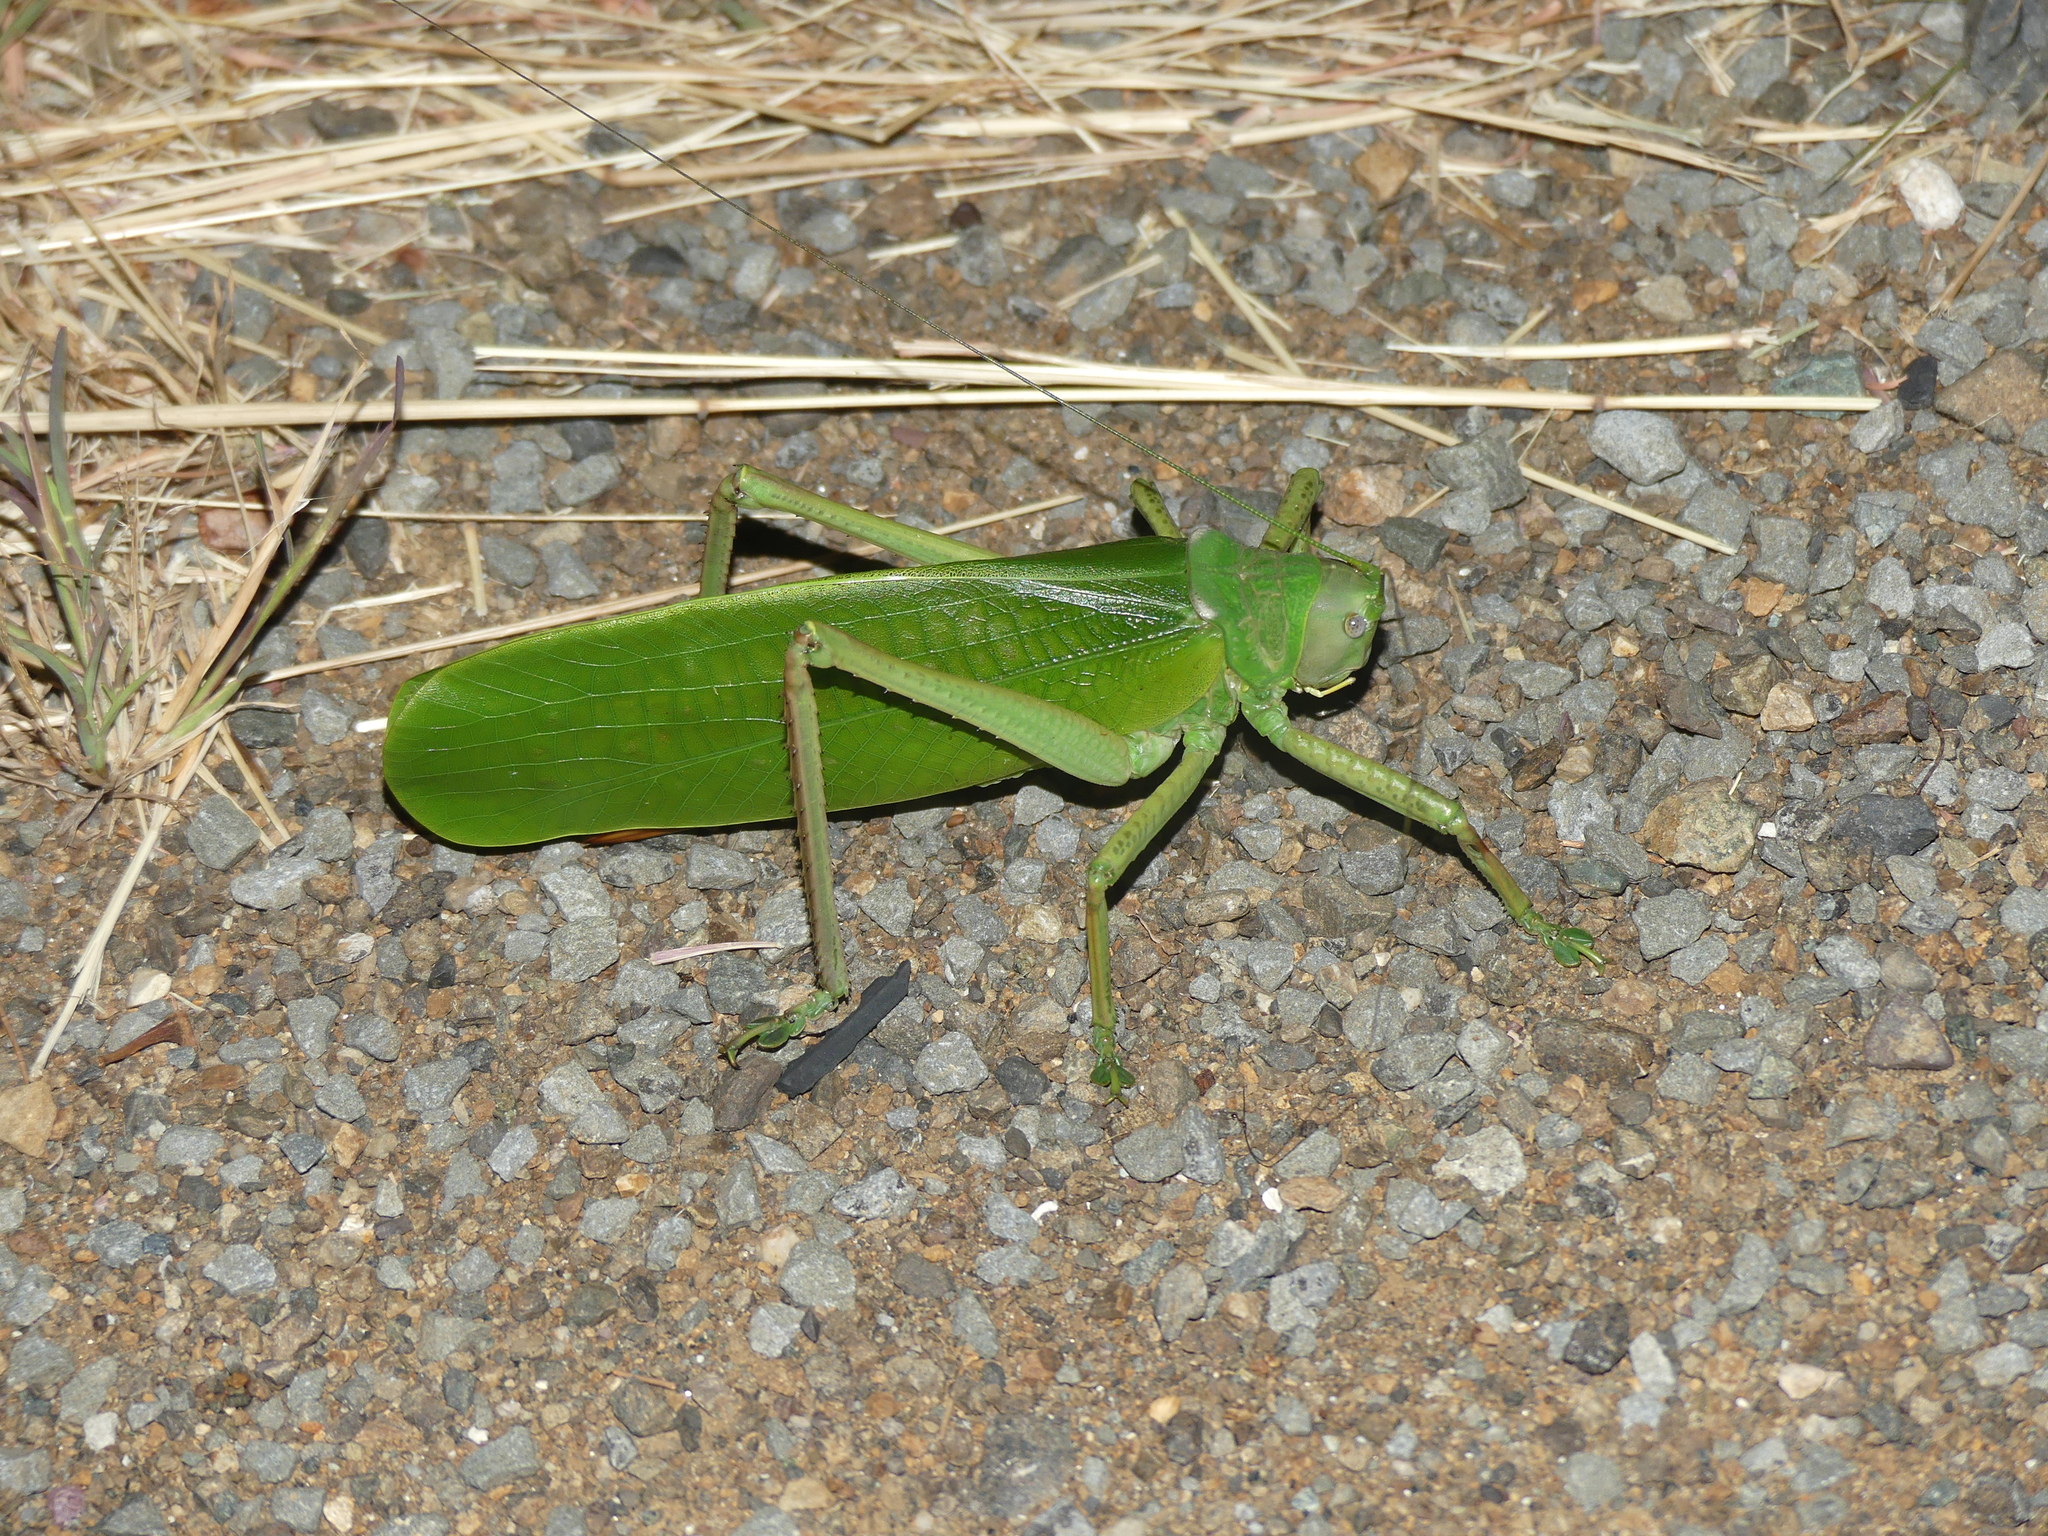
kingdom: Animalia
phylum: Arthropoda
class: Insecta
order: Orthoptera
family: Tettigoniidae
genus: Pseudophyllanax
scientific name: Pseudophyllanax imperialis
